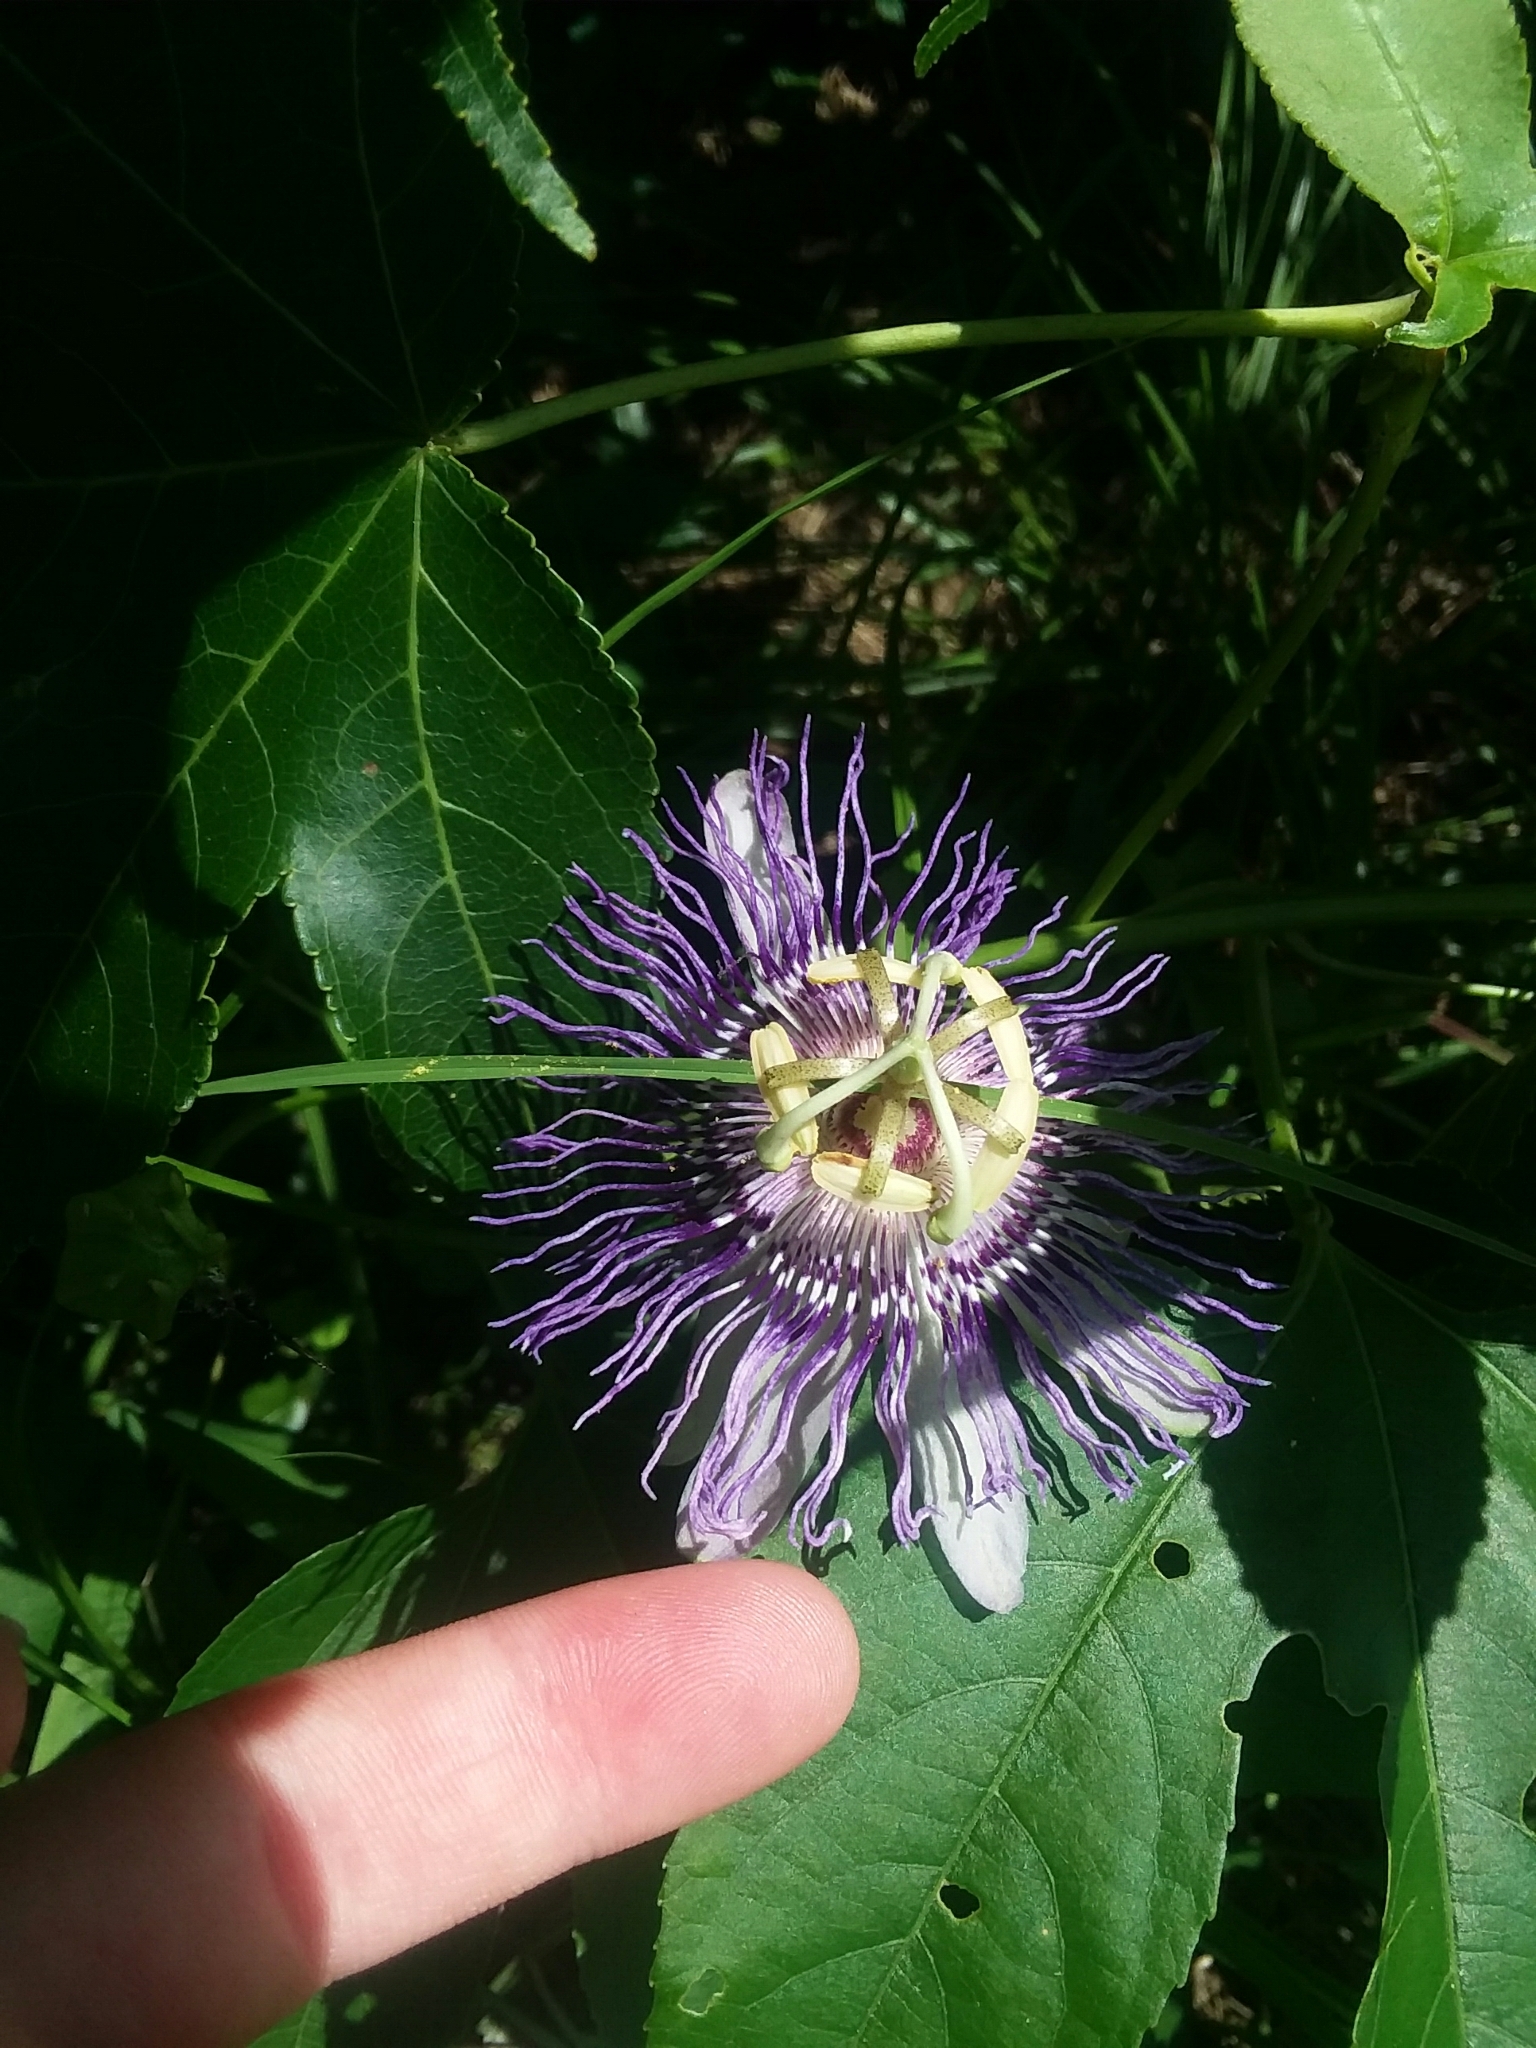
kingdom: Plantae
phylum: Tracheophyta
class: Magnoliopsida
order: Malpighiales
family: Passifloraceae
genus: Passiflora
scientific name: Passiflora incarnata
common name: Apricot-vine
